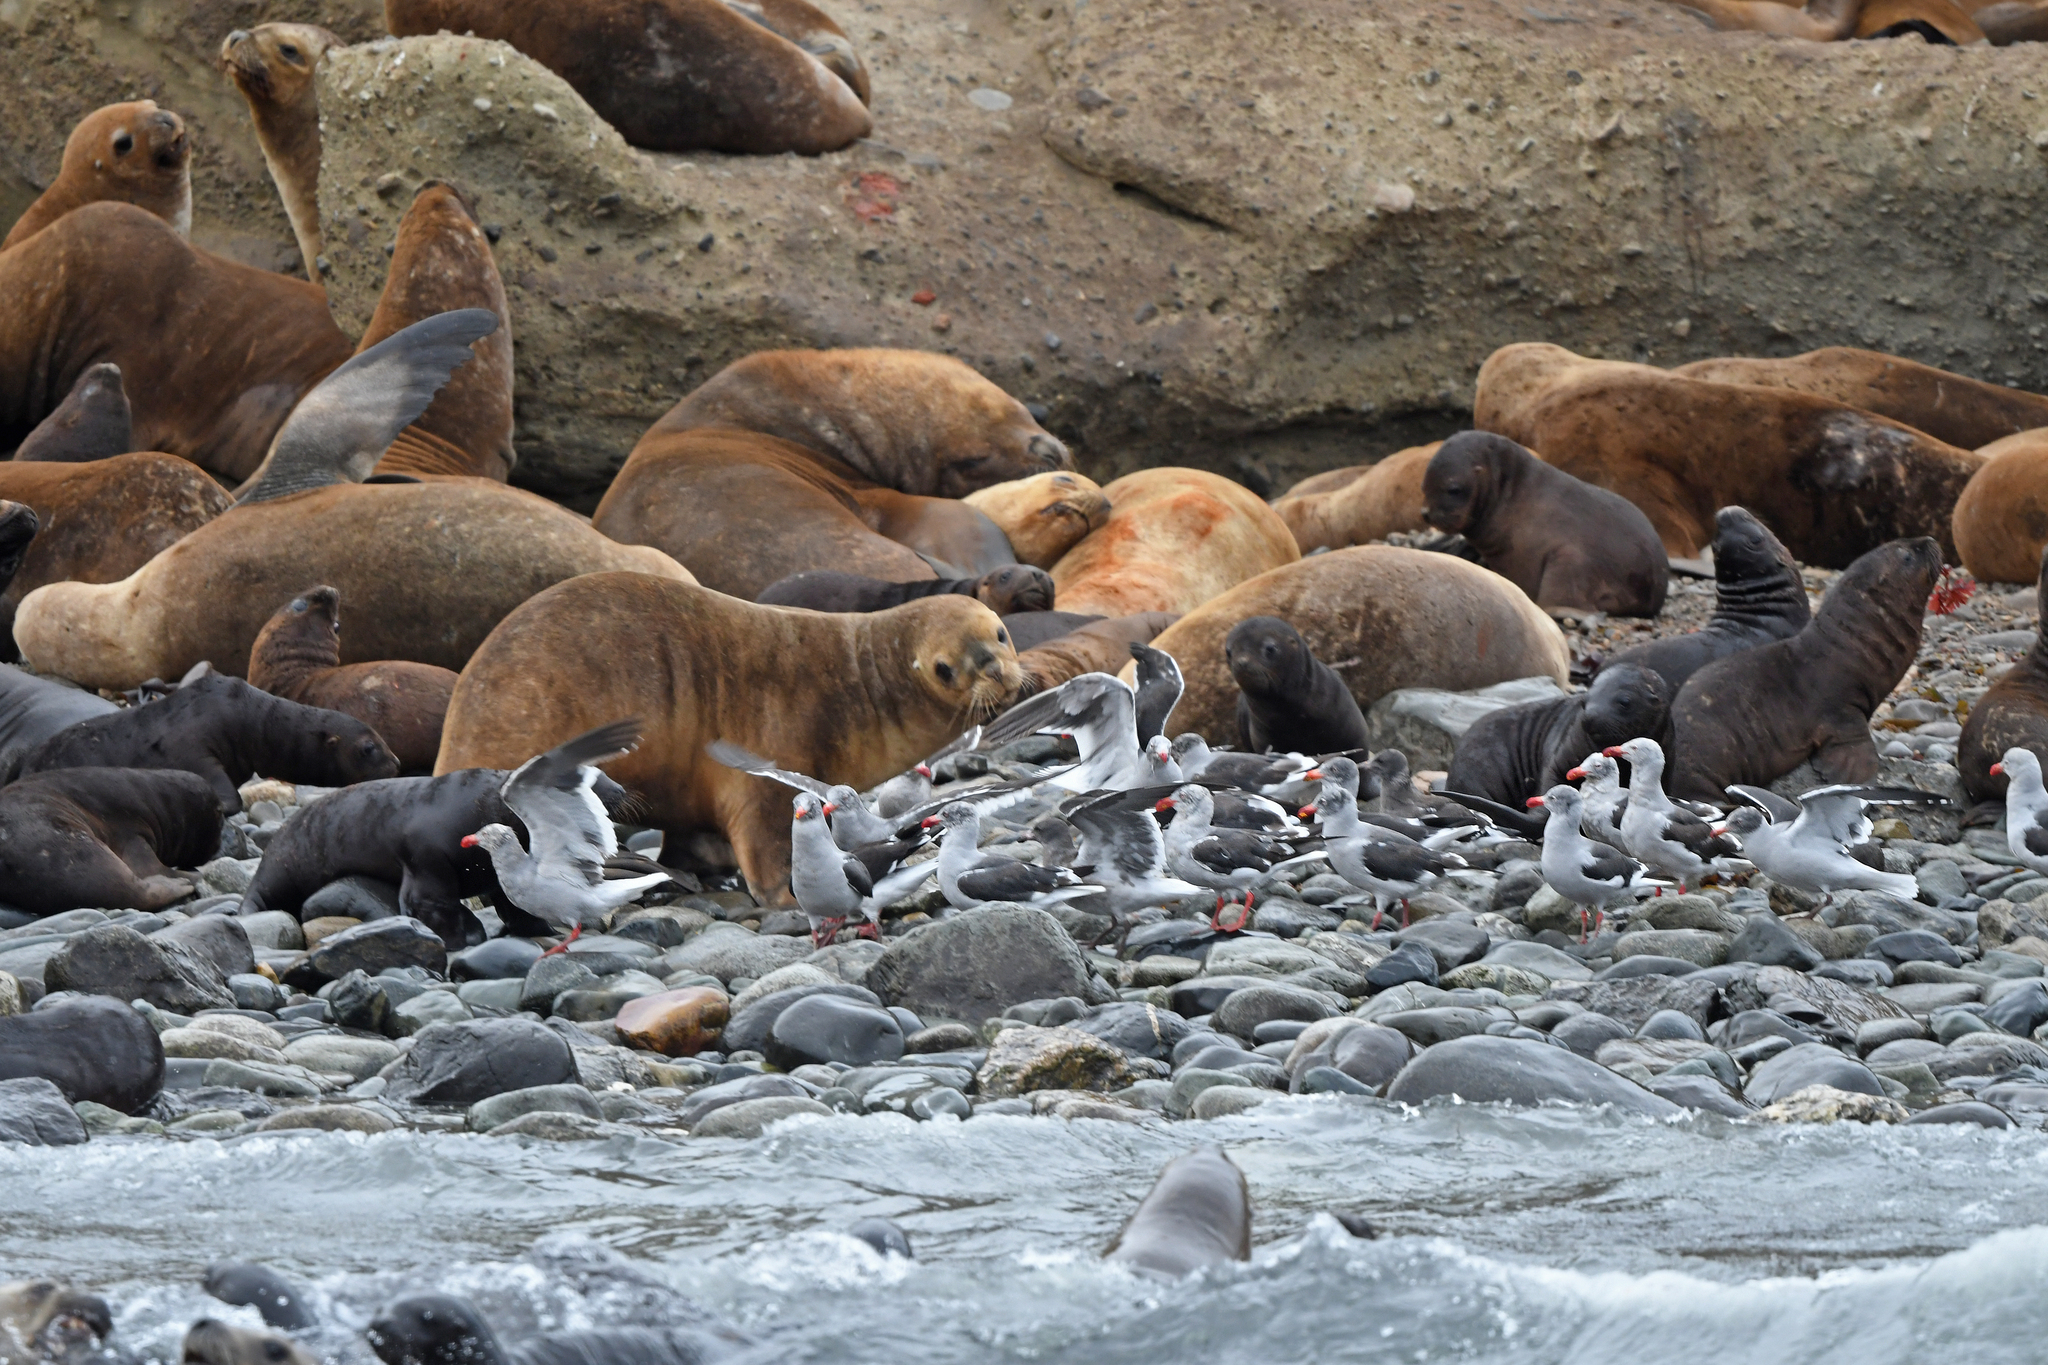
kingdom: Animalia
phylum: Chordata
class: Aves
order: Charadriiformes
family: Laridae
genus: Leucophaeus
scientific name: Leucophaeus scoresbii
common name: Dolphin gull
